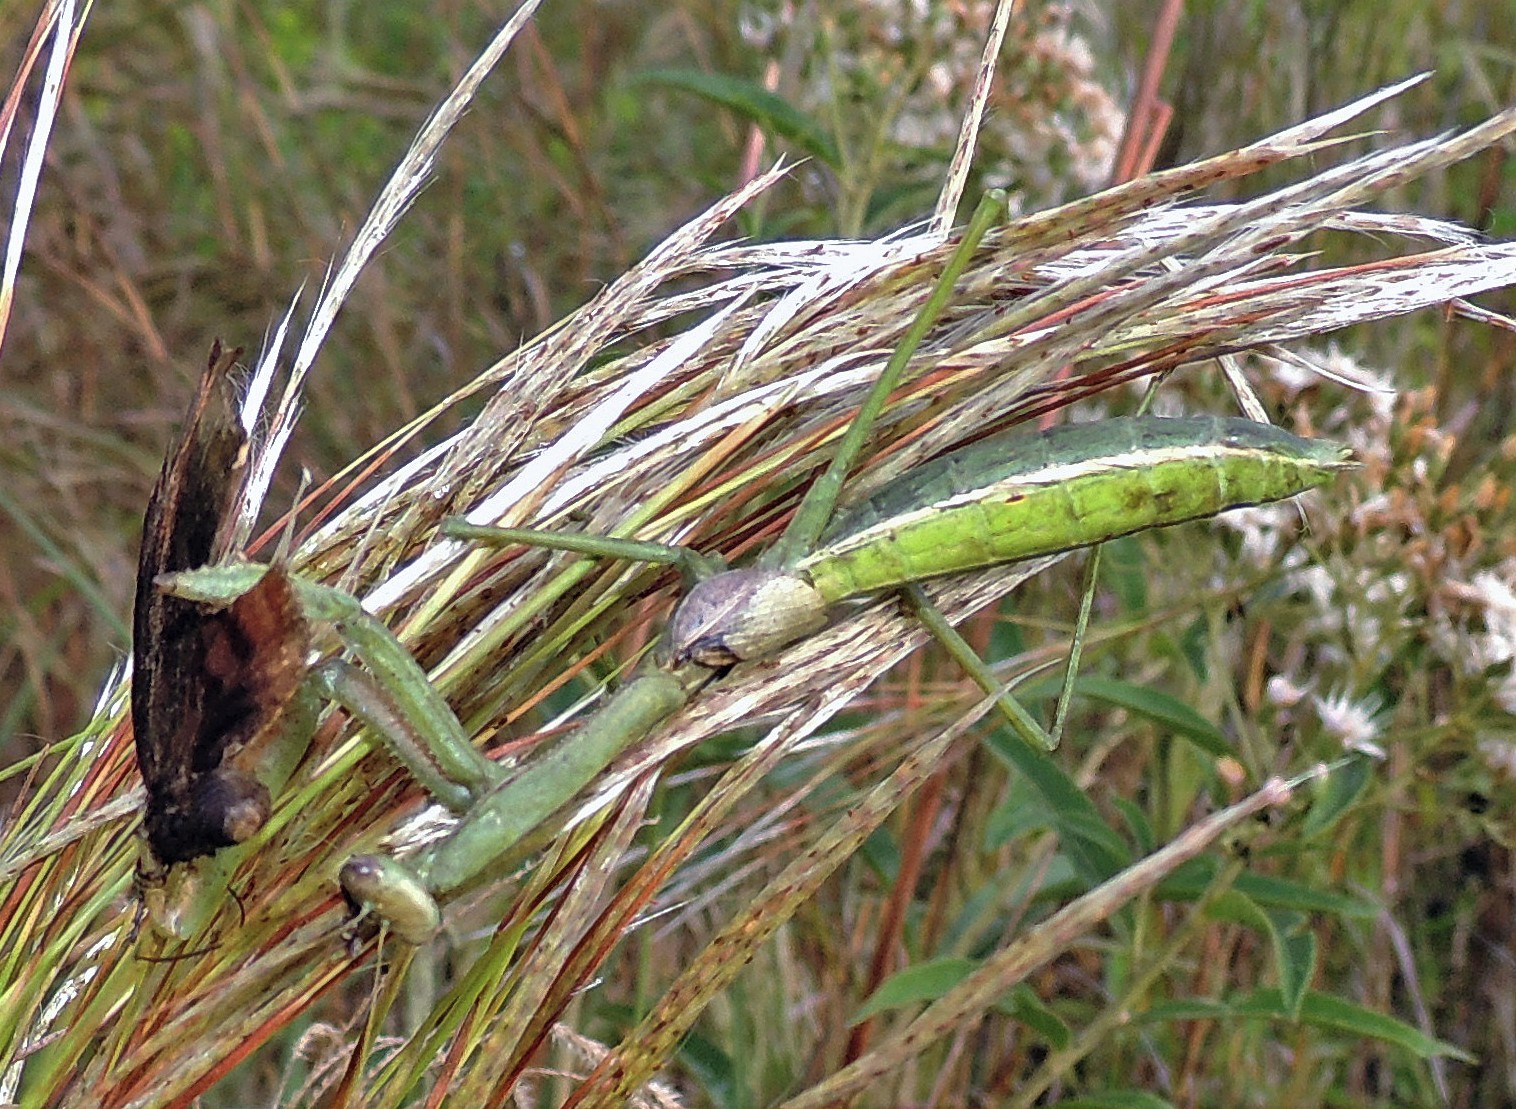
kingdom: Animalia
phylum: Arthropoda
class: Insecta
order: Mantodea
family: Coptopterygidae
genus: Coptopteryx
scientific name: Coptopteryx argentina
